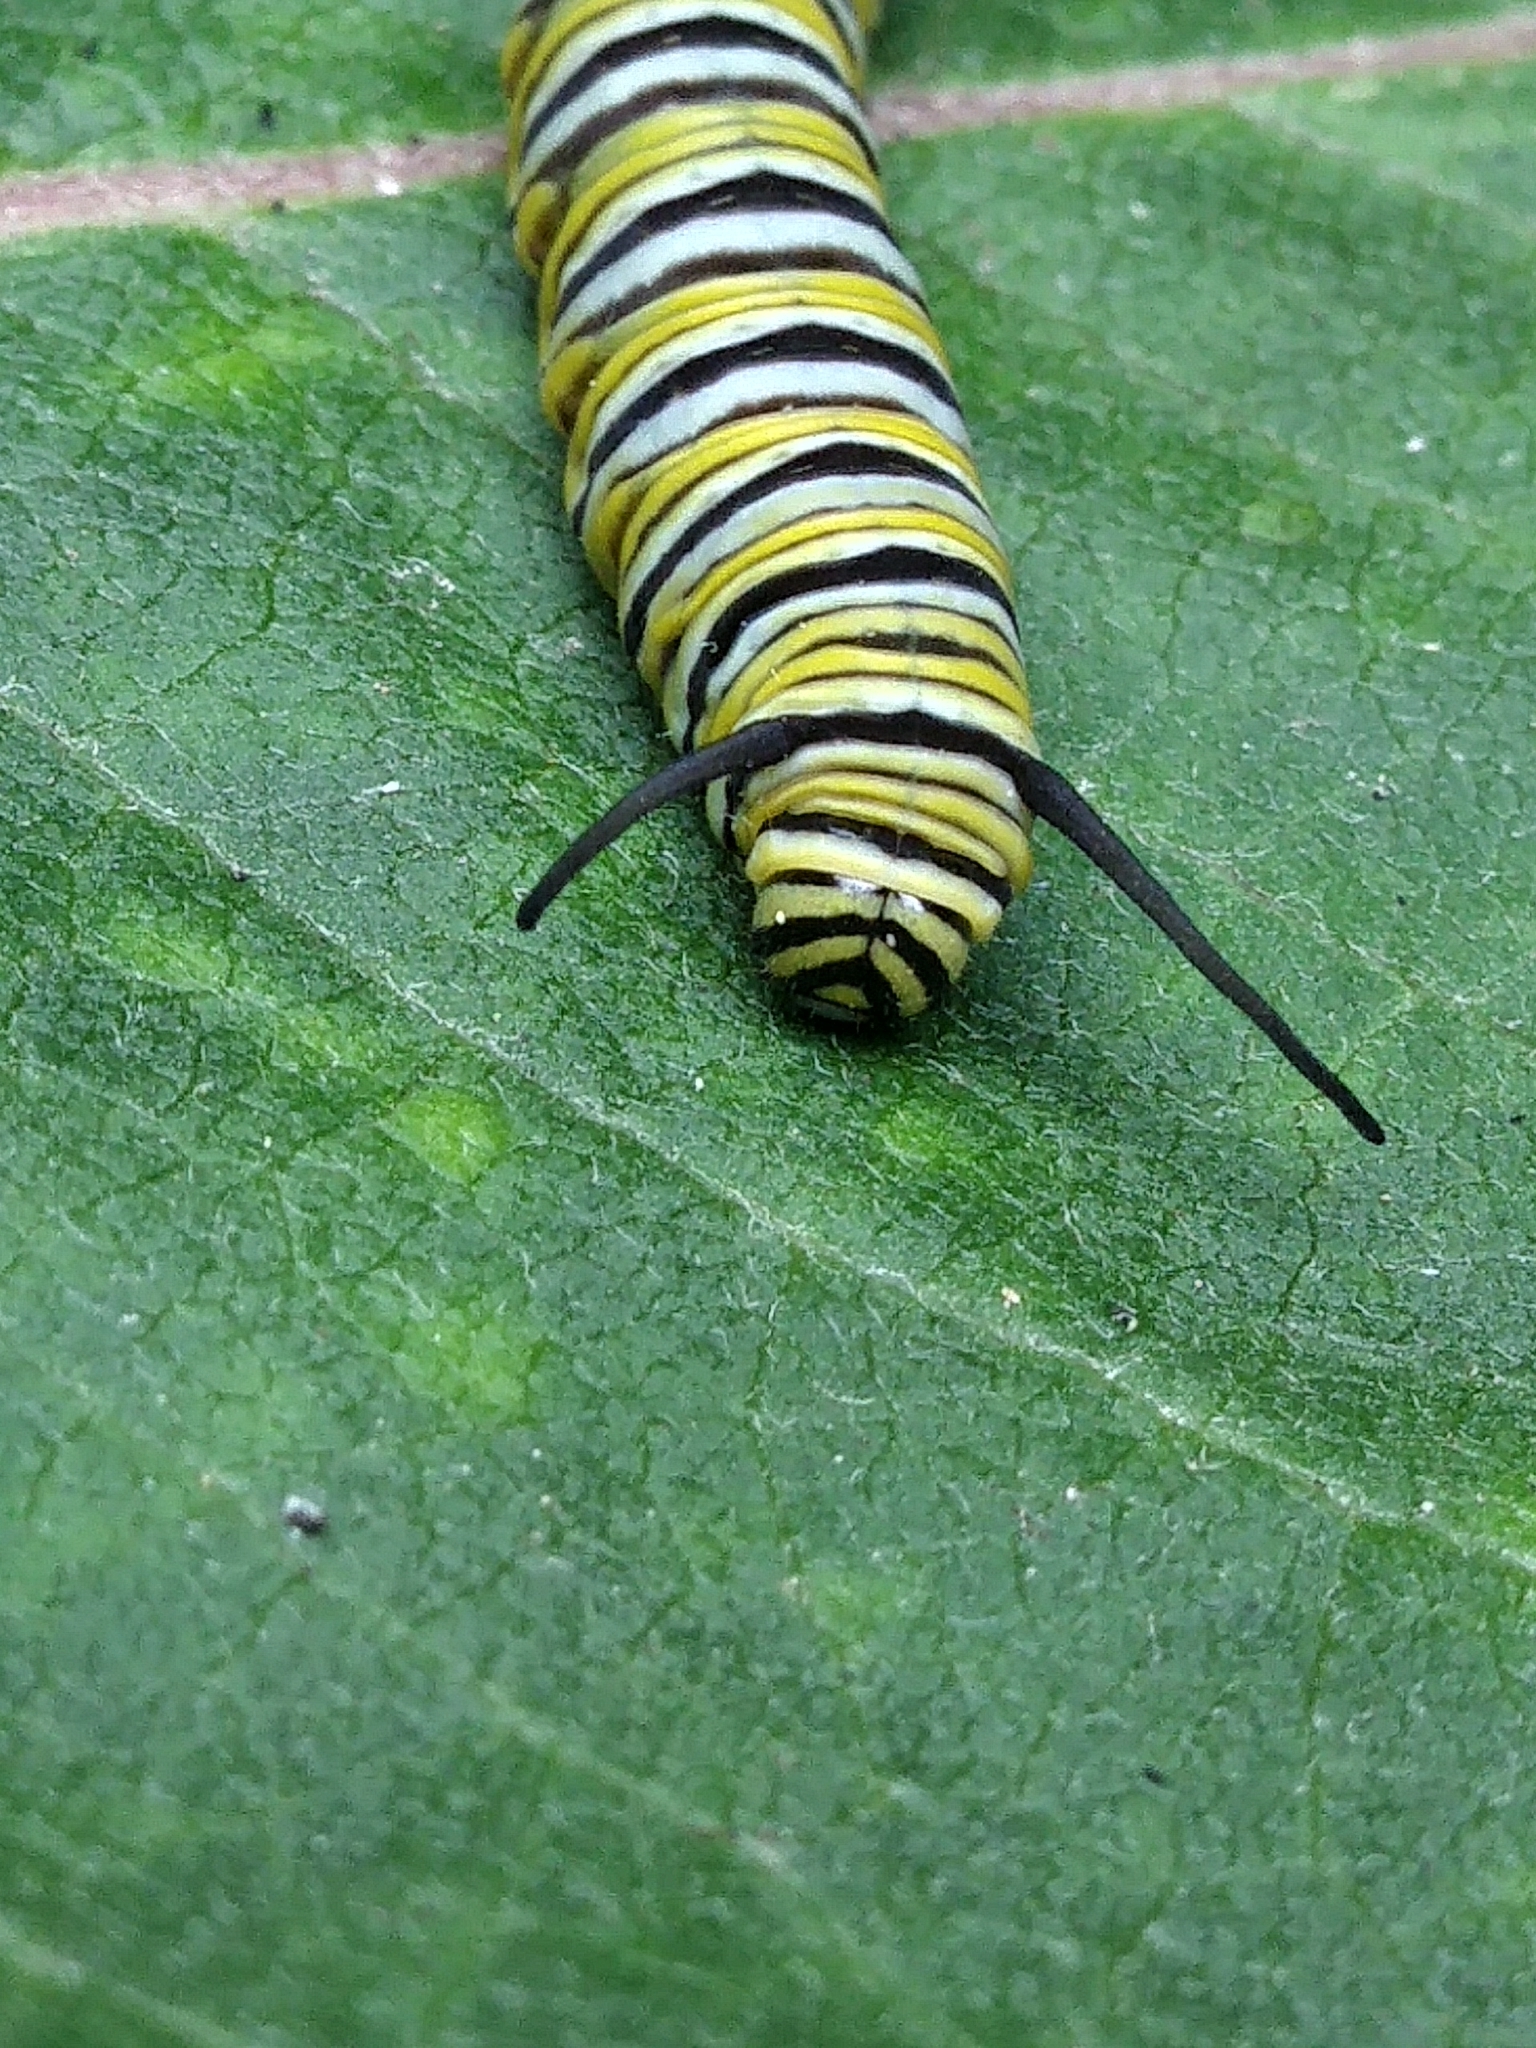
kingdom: Animalia
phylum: Arthropoda
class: Insecta
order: Lepidoptera
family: Nymphalidae
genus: Danaus
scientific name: Danaus plexippus
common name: Monarch
